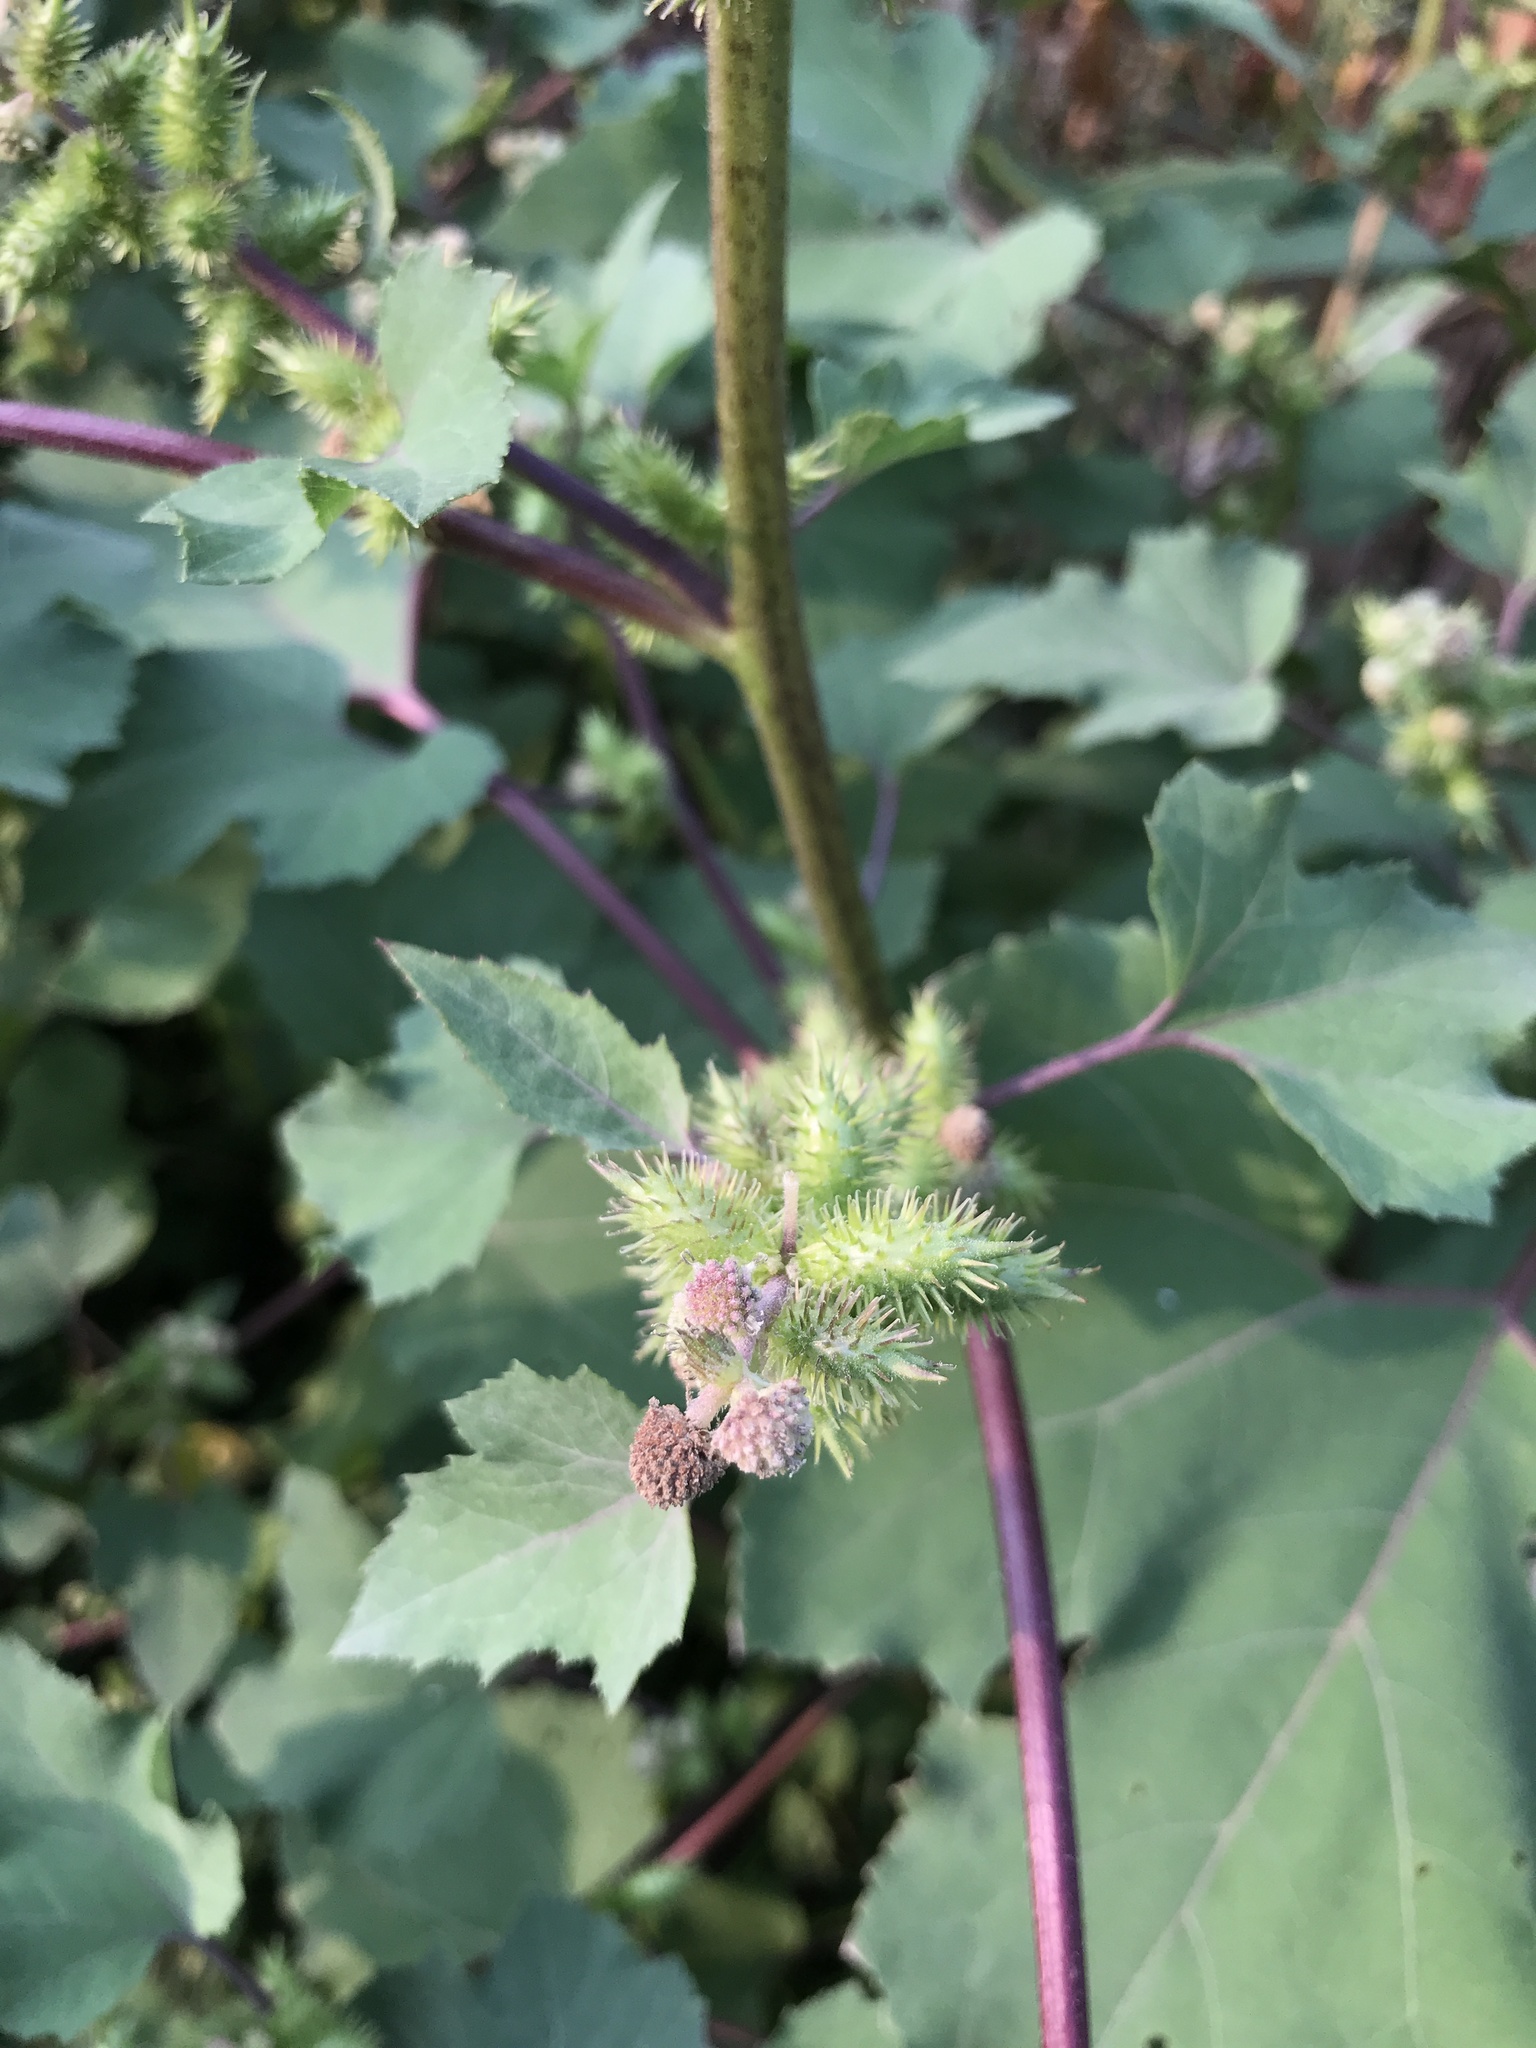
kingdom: Plantae
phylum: Tracheophyta
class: Magnoliopsida
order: Asterales
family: Asteraceae
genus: Xanthium
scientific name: Xanthium strumarium
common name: Rough cocklebur
